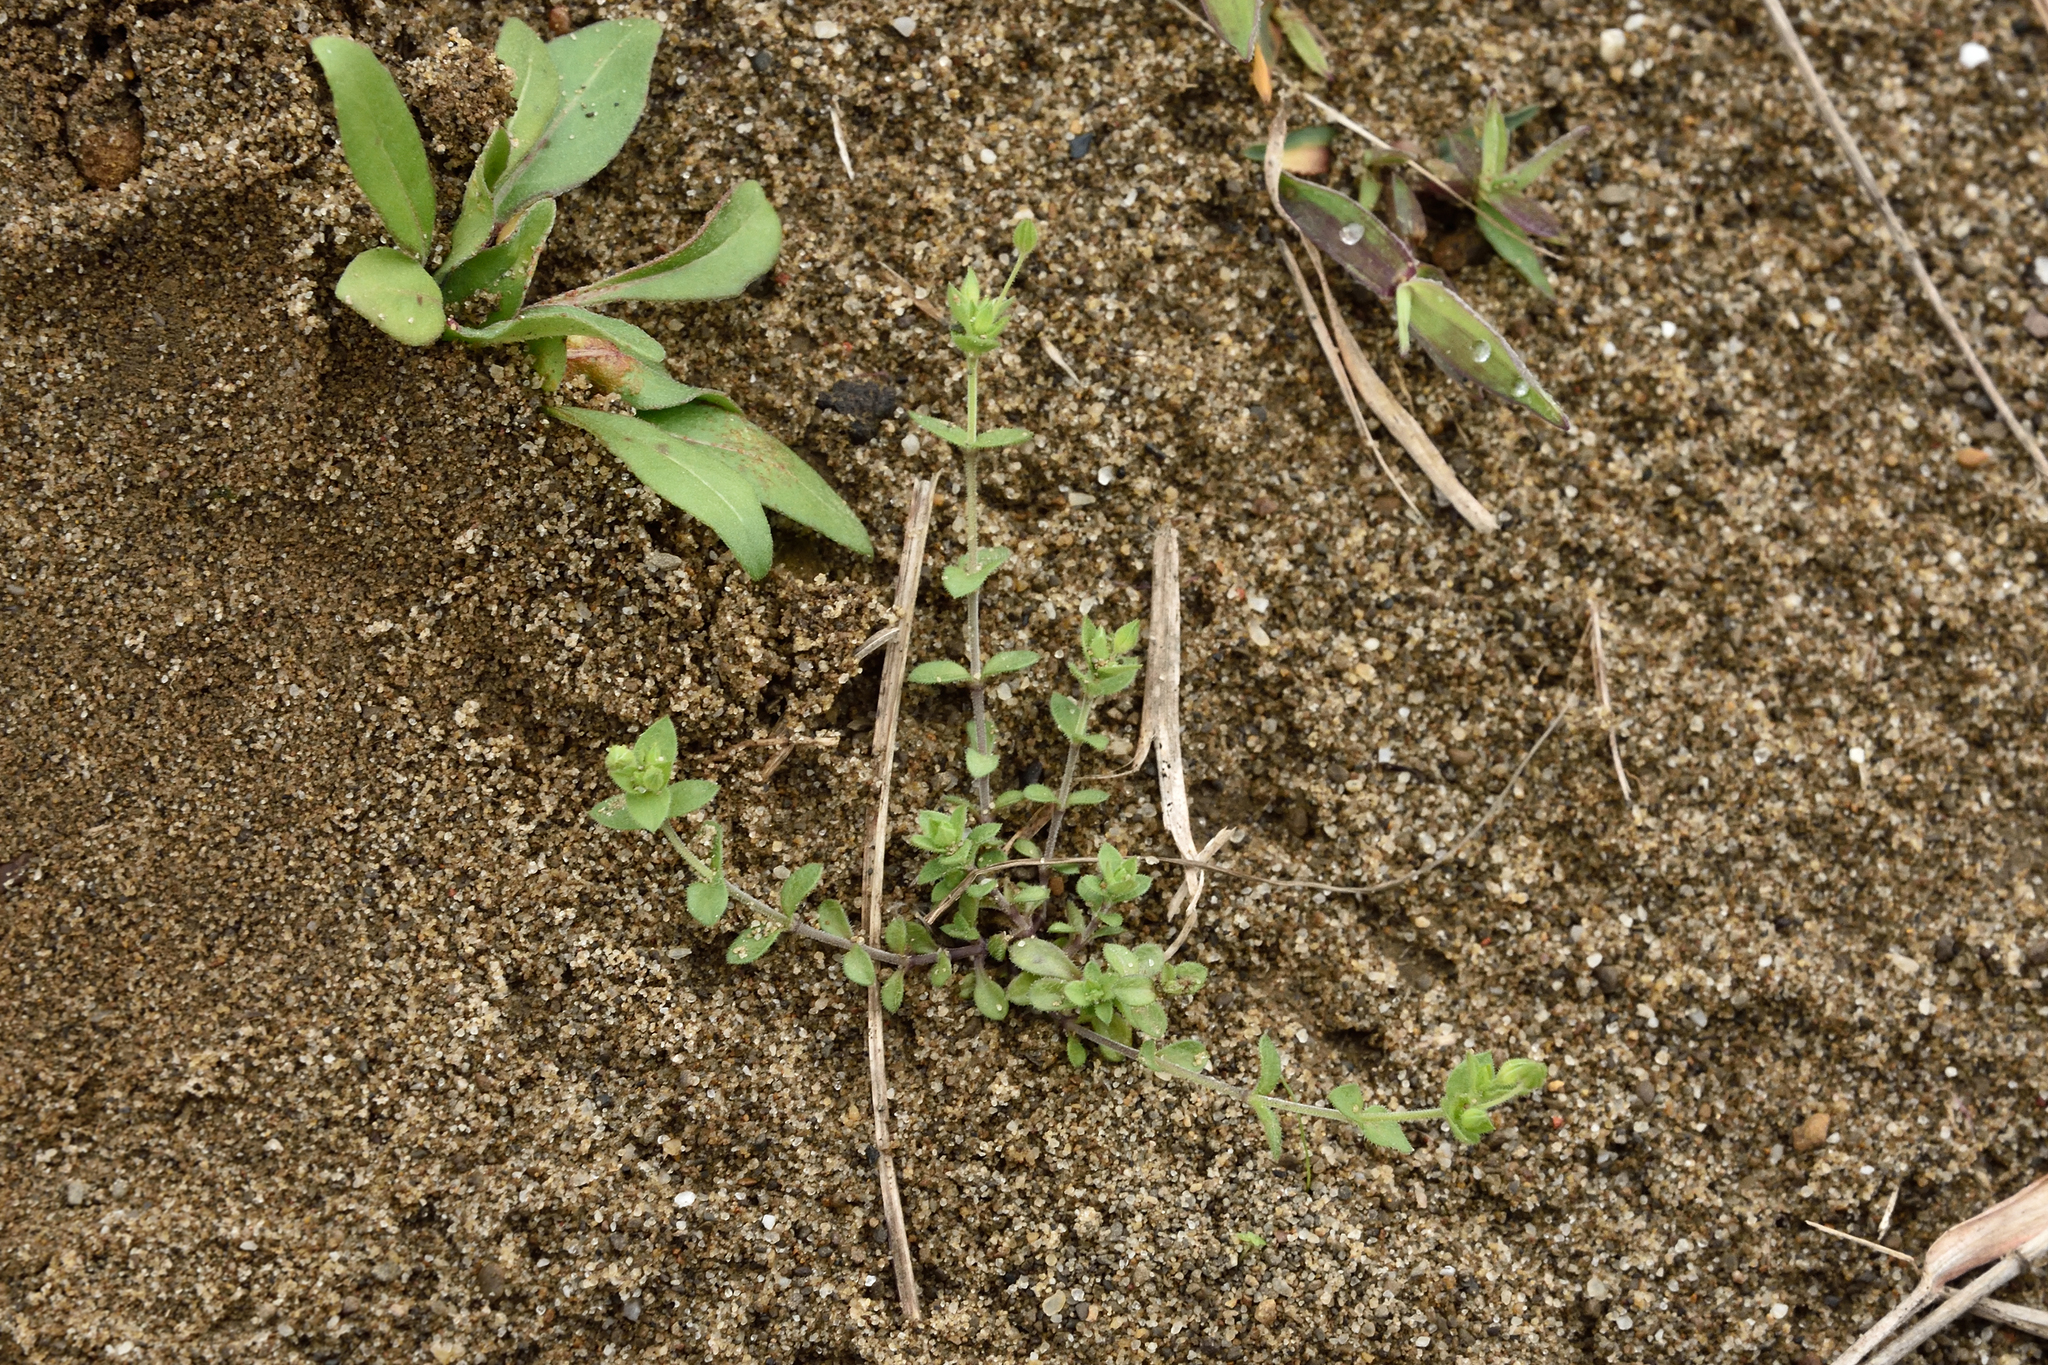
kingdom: Plantae
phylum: Tracheophyta
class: Magnoliopsida
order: Caryophyllales
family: Caryophyllaceae
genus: Arenaria
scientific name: Arenaria serpyllifolia
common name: Thyme-leaved sandwort
